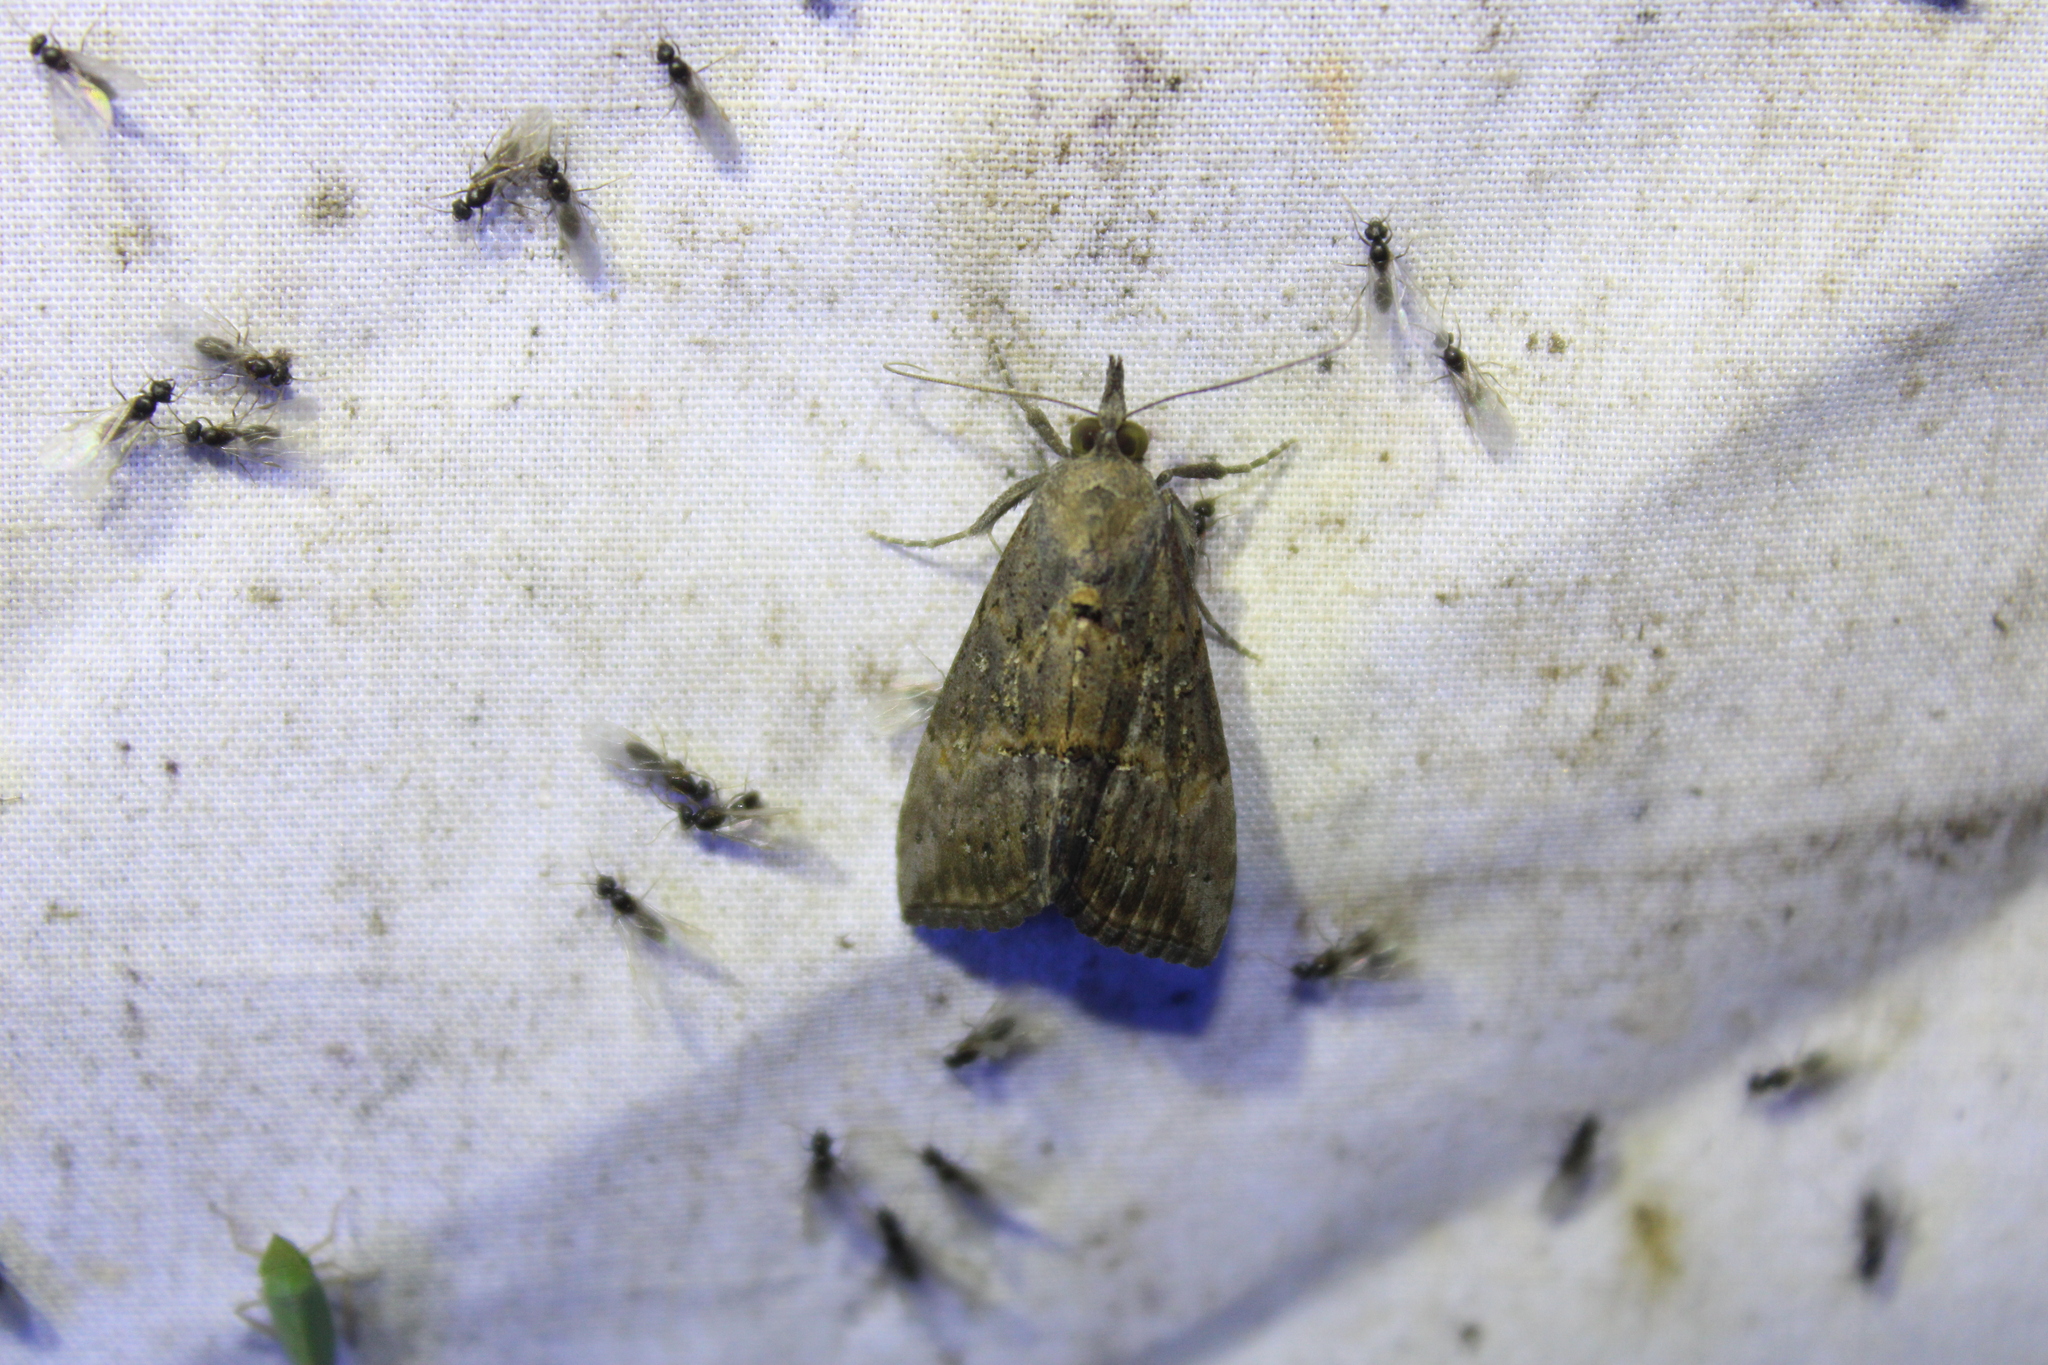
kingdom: Animalia
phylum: Arthropoda
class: Insecta
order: Lepidoptera
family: Erebidae
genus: Hypena
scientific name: Hypena scabra
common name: Green cloverworm
